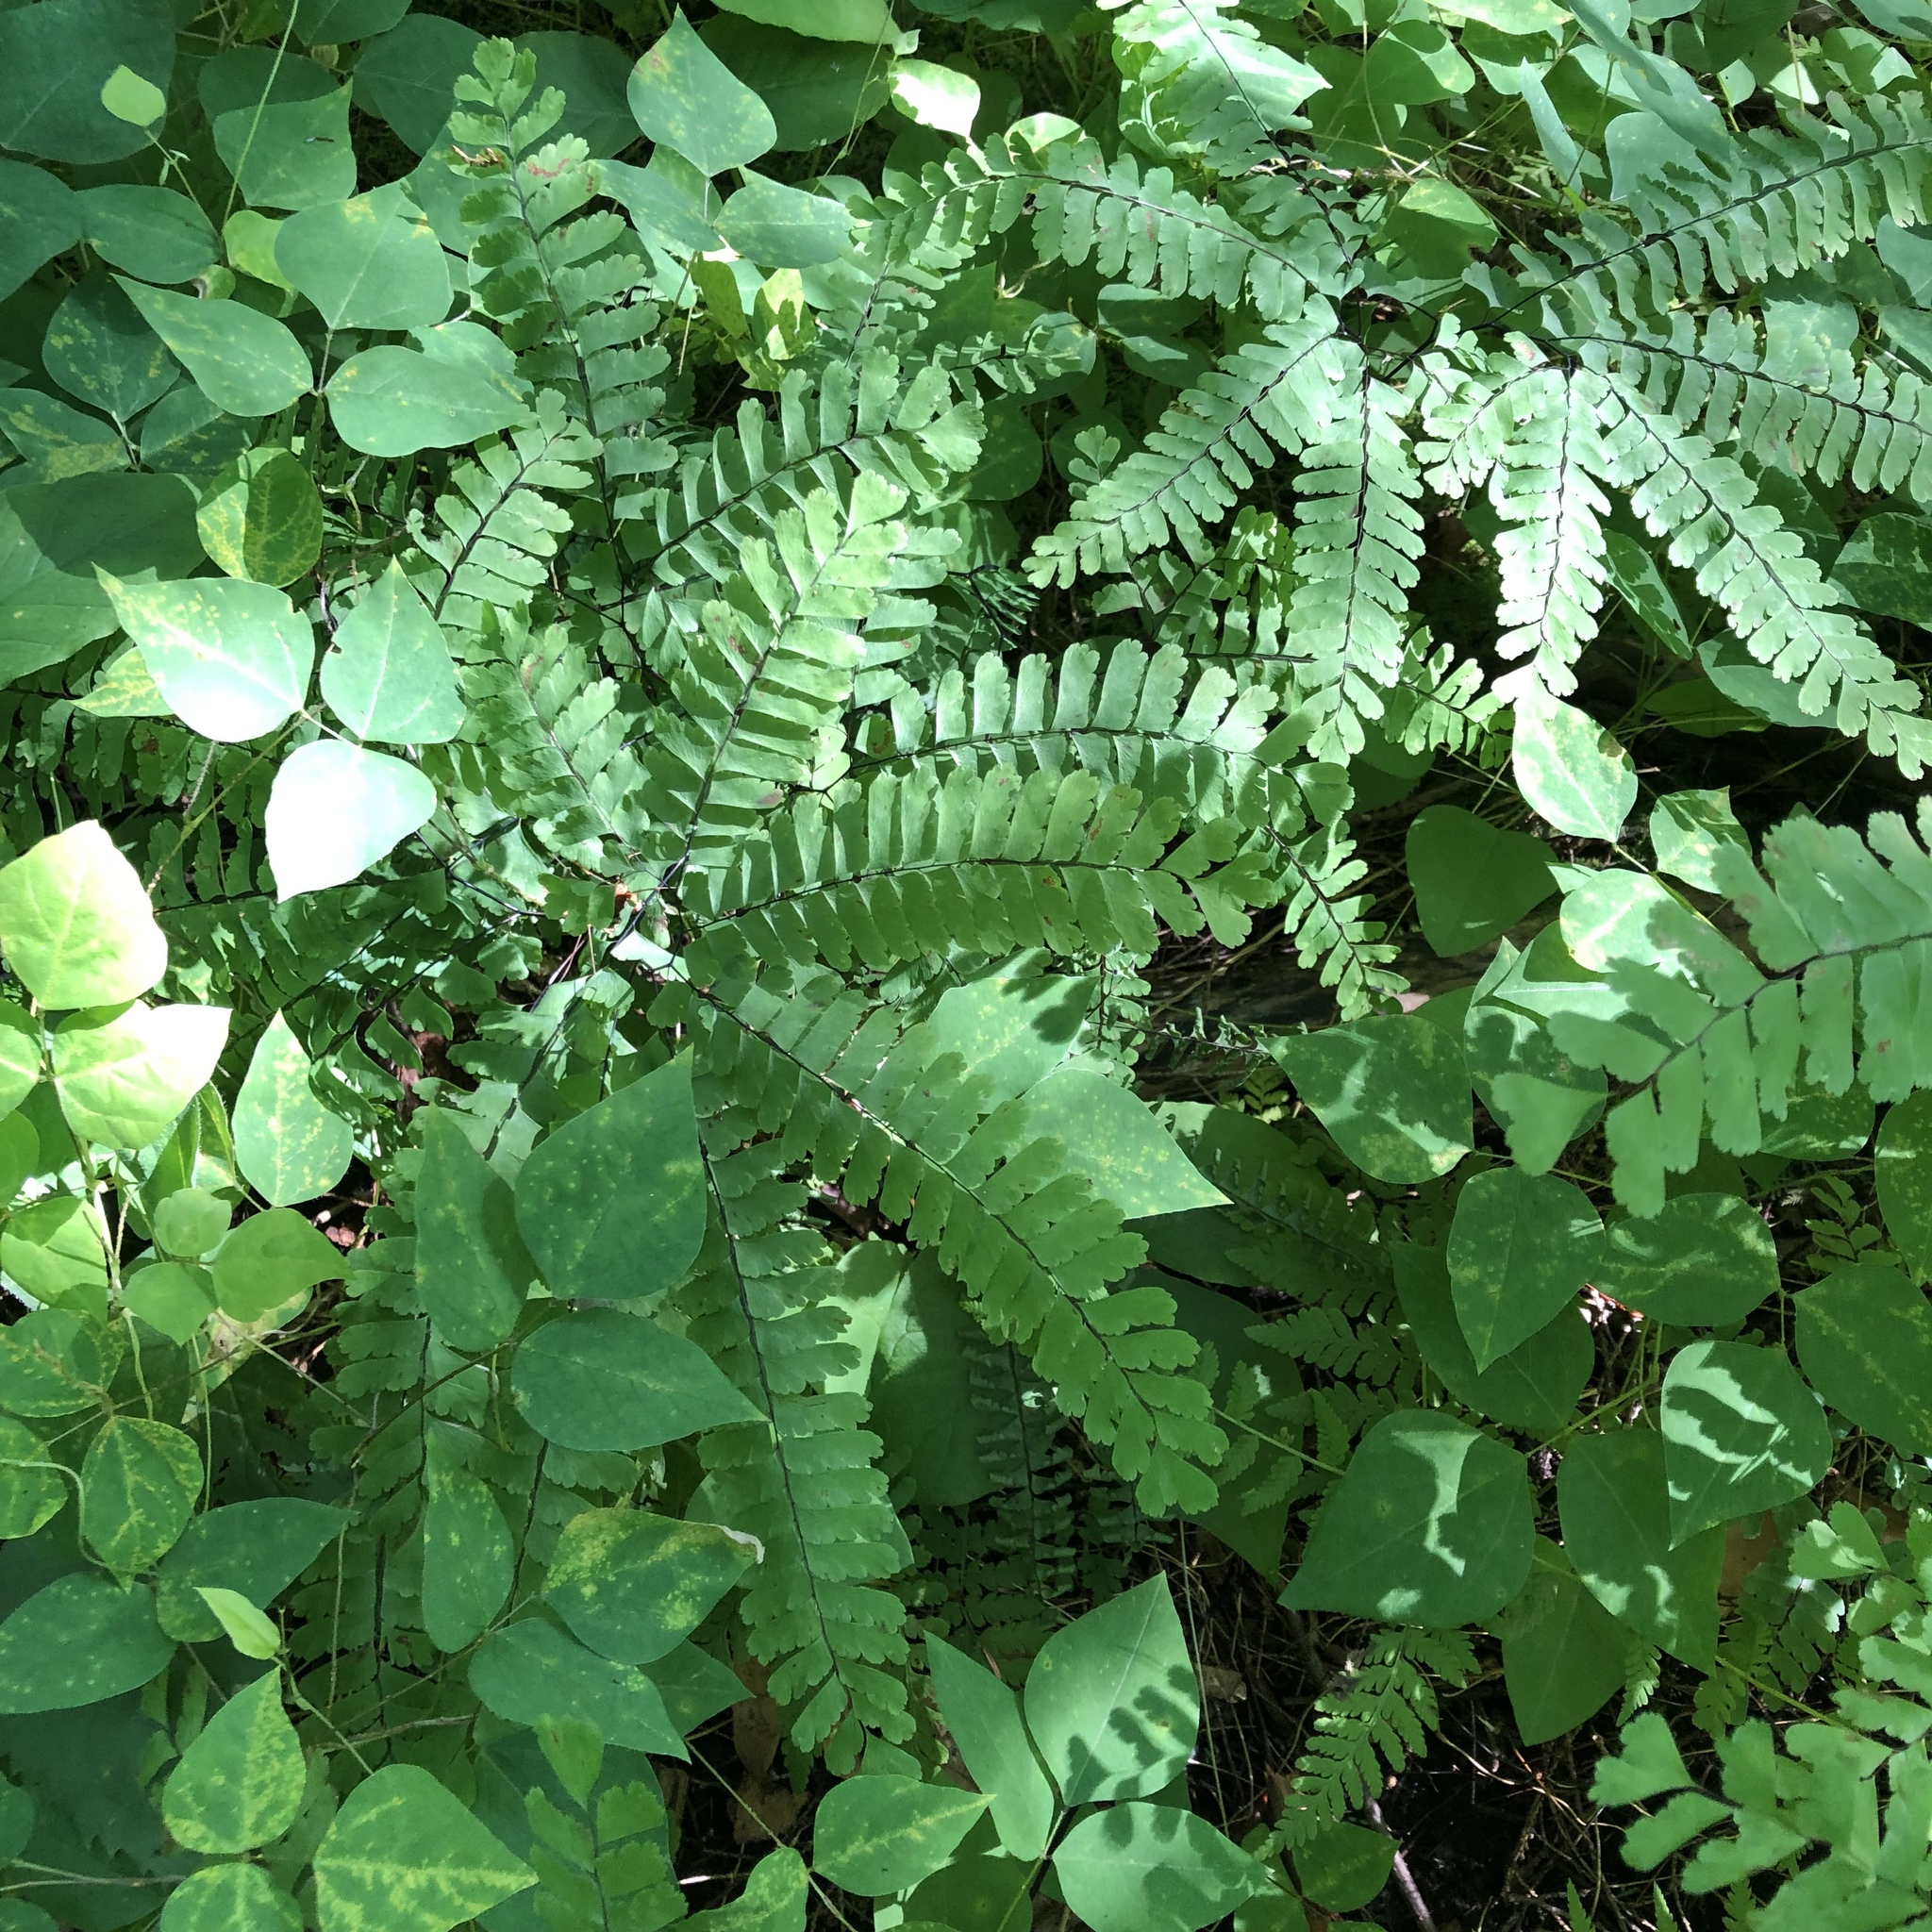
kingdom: Plantae
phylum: Tracheophyta
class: Polypodiopsida
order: Polypodiales
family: Pteridaceae
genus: Adiantum
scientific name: Adiantum pedatum
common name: Five-finger fern
